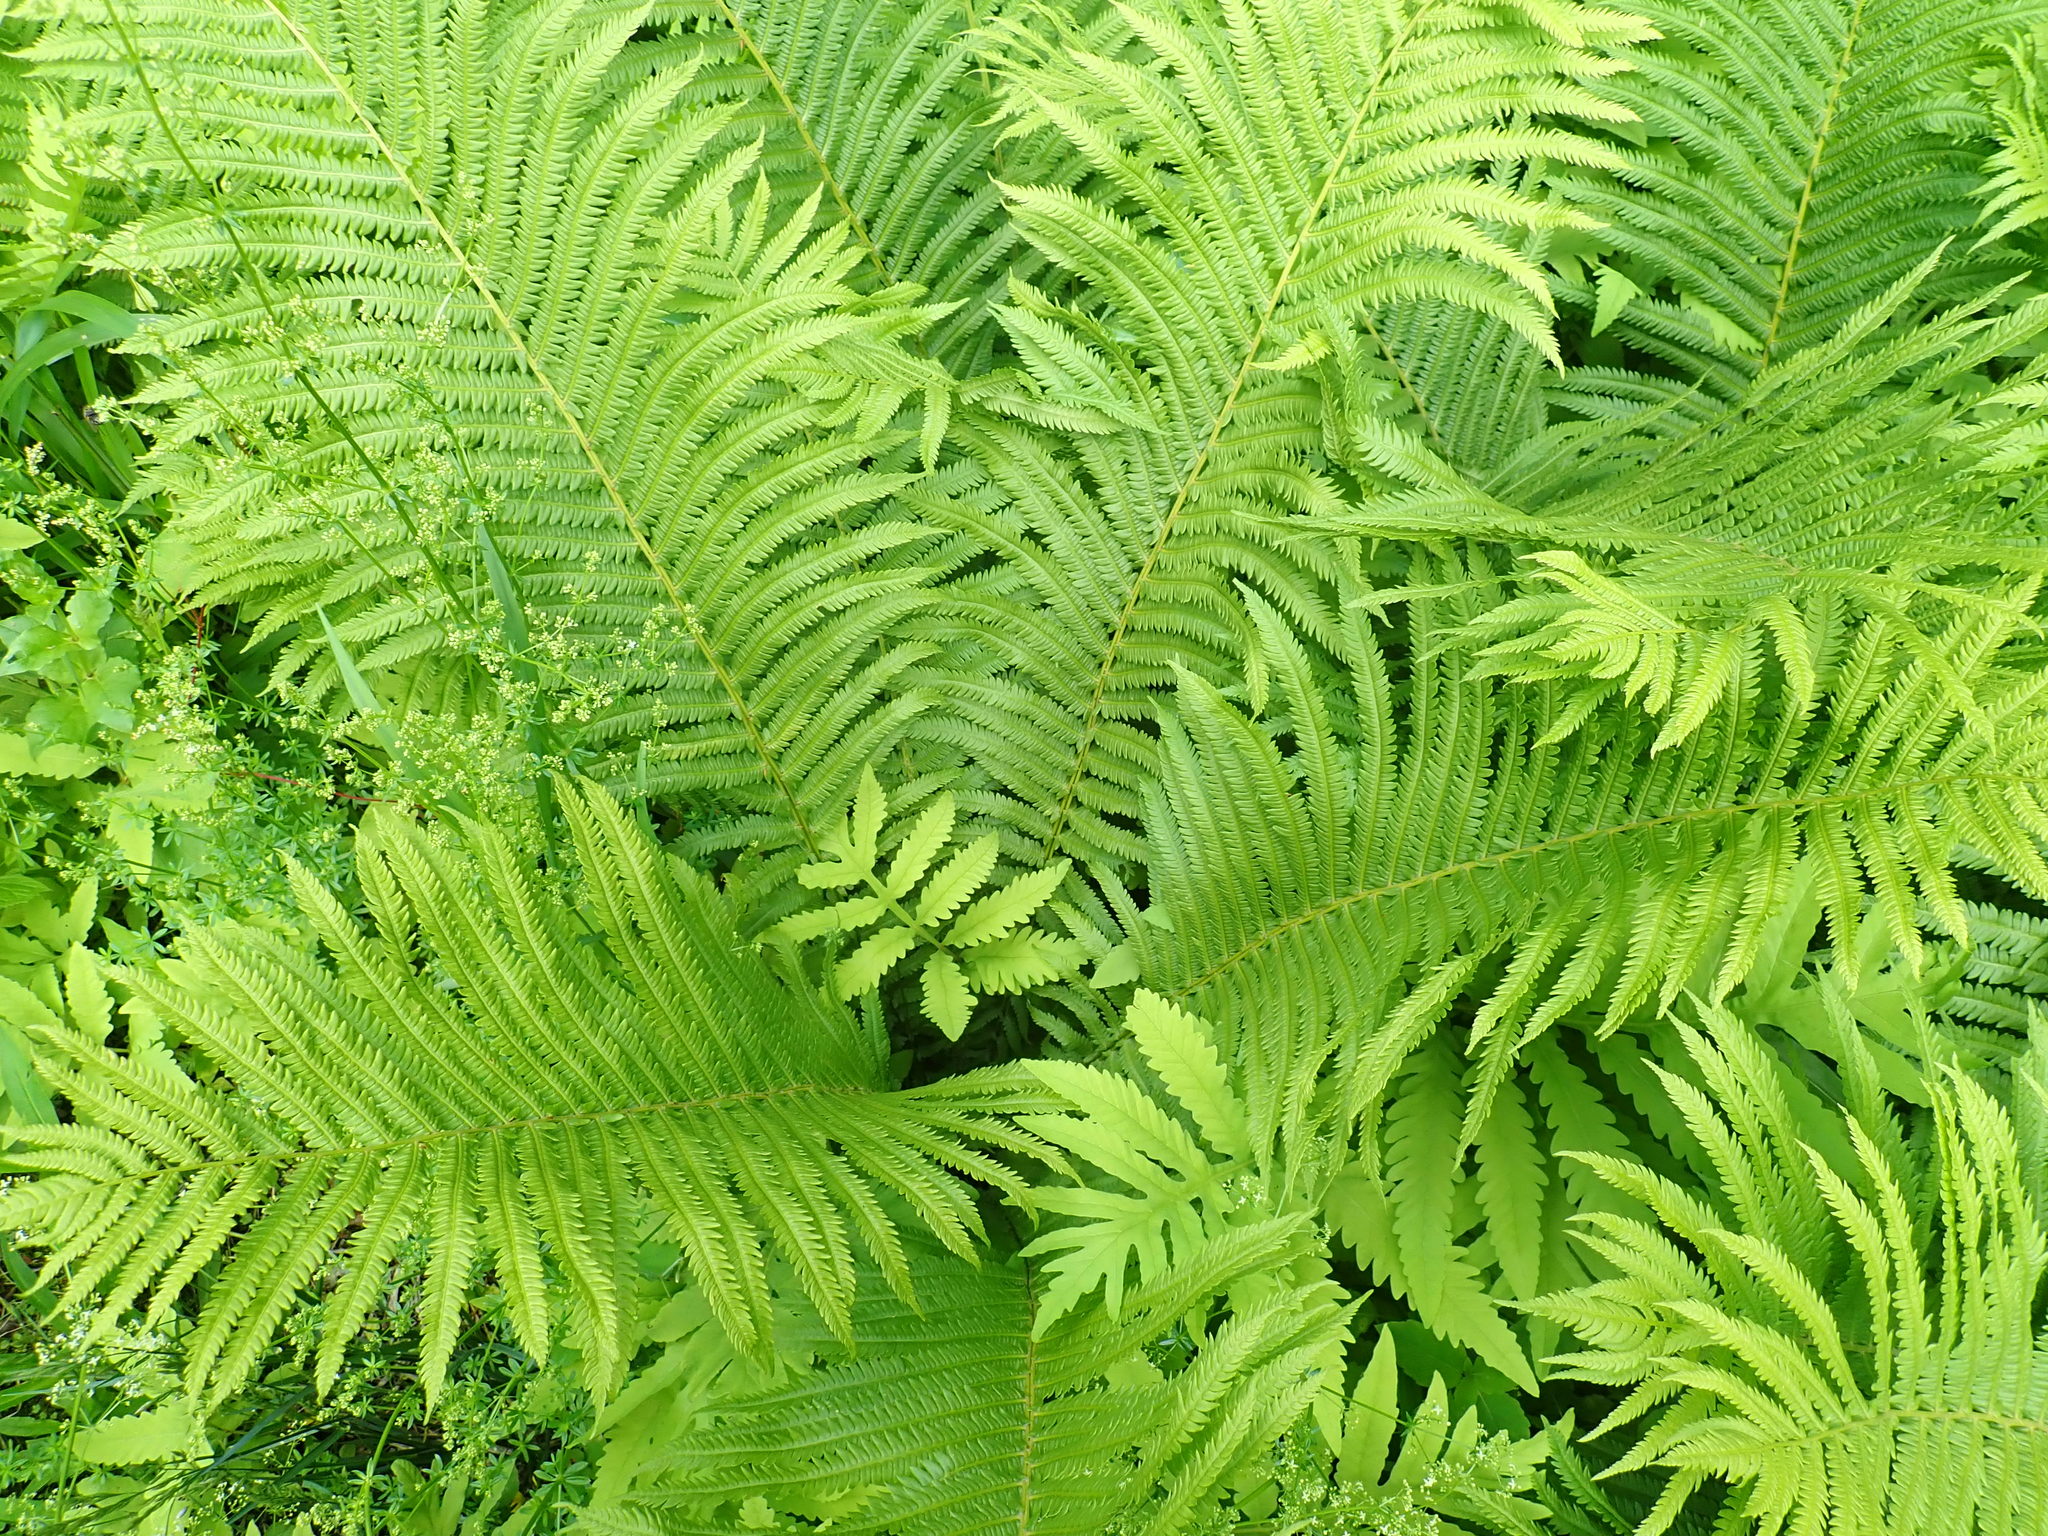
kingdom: Plantae
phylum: Tracheophyta
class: Polypodiopsida
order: Polypodiales
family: Onocleaceae
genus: Matteuccia
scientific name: Matteuccia struthiopteris
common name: Ostrich fern
